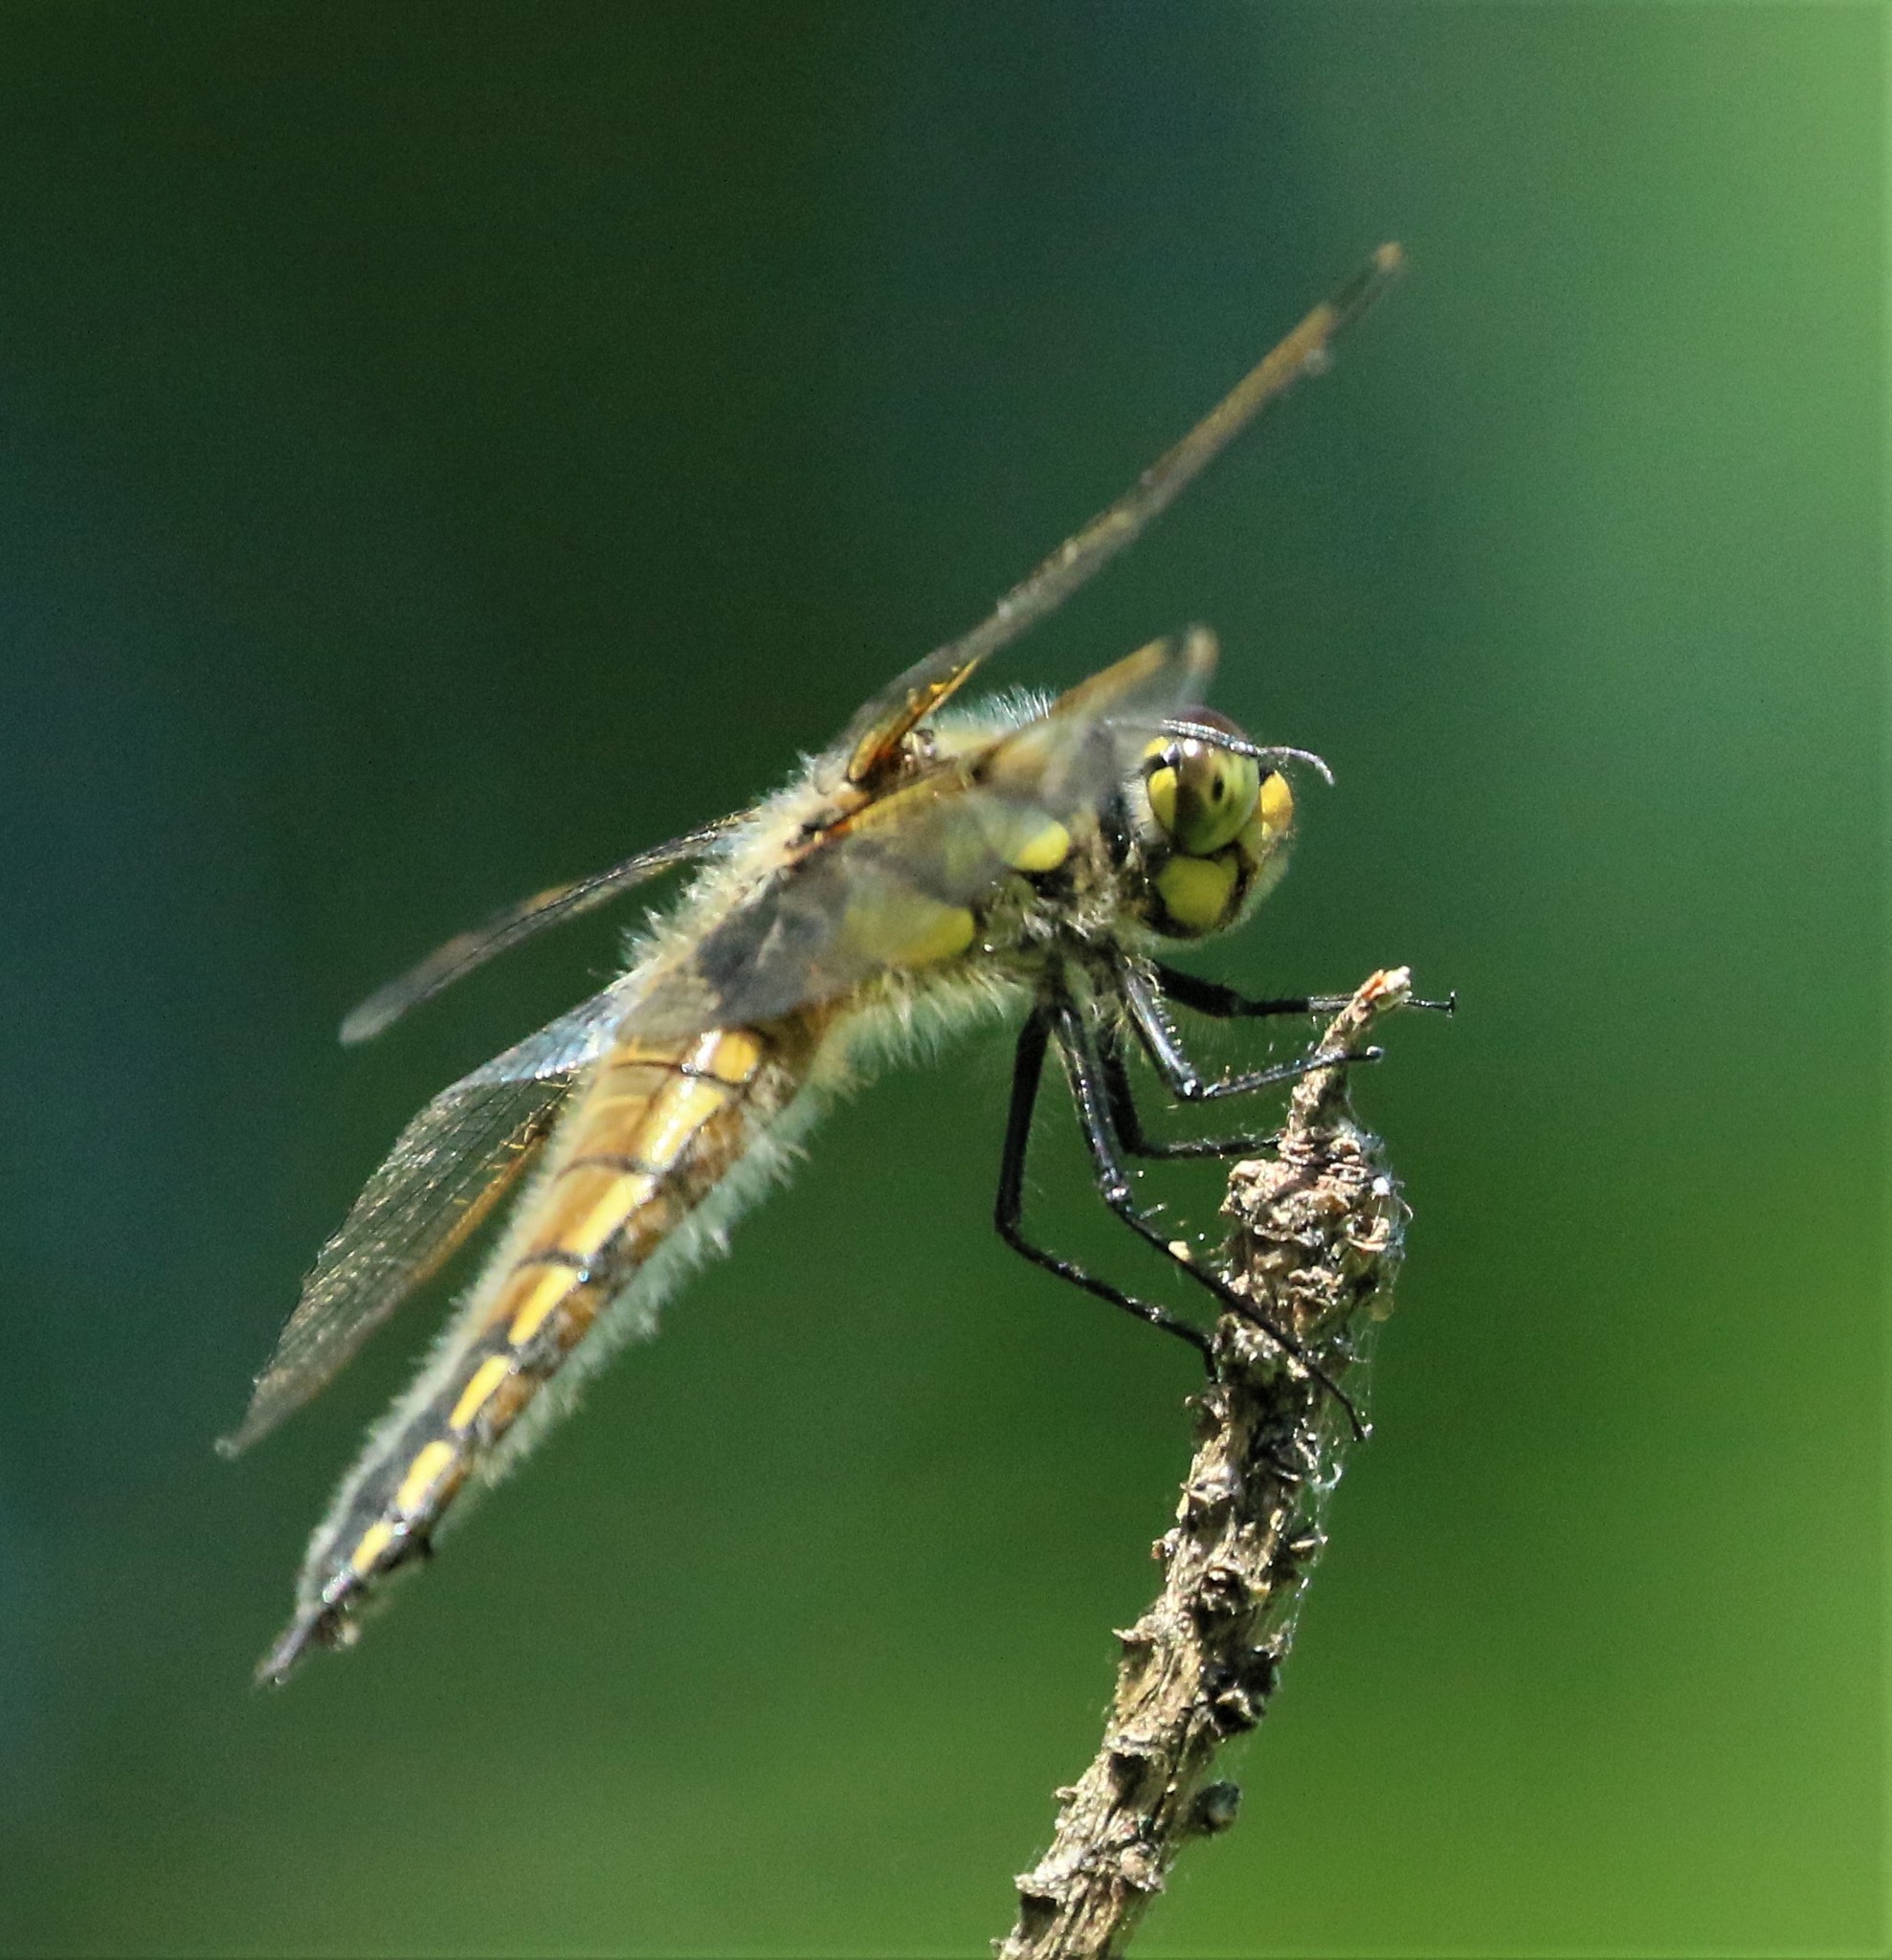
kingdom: Animalia
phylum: Arthropoda
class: Insecta
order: Odonata
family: Libellulidae
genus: Libellula
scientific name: Libellula quadrimaculata
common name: Four-spotted chaser
